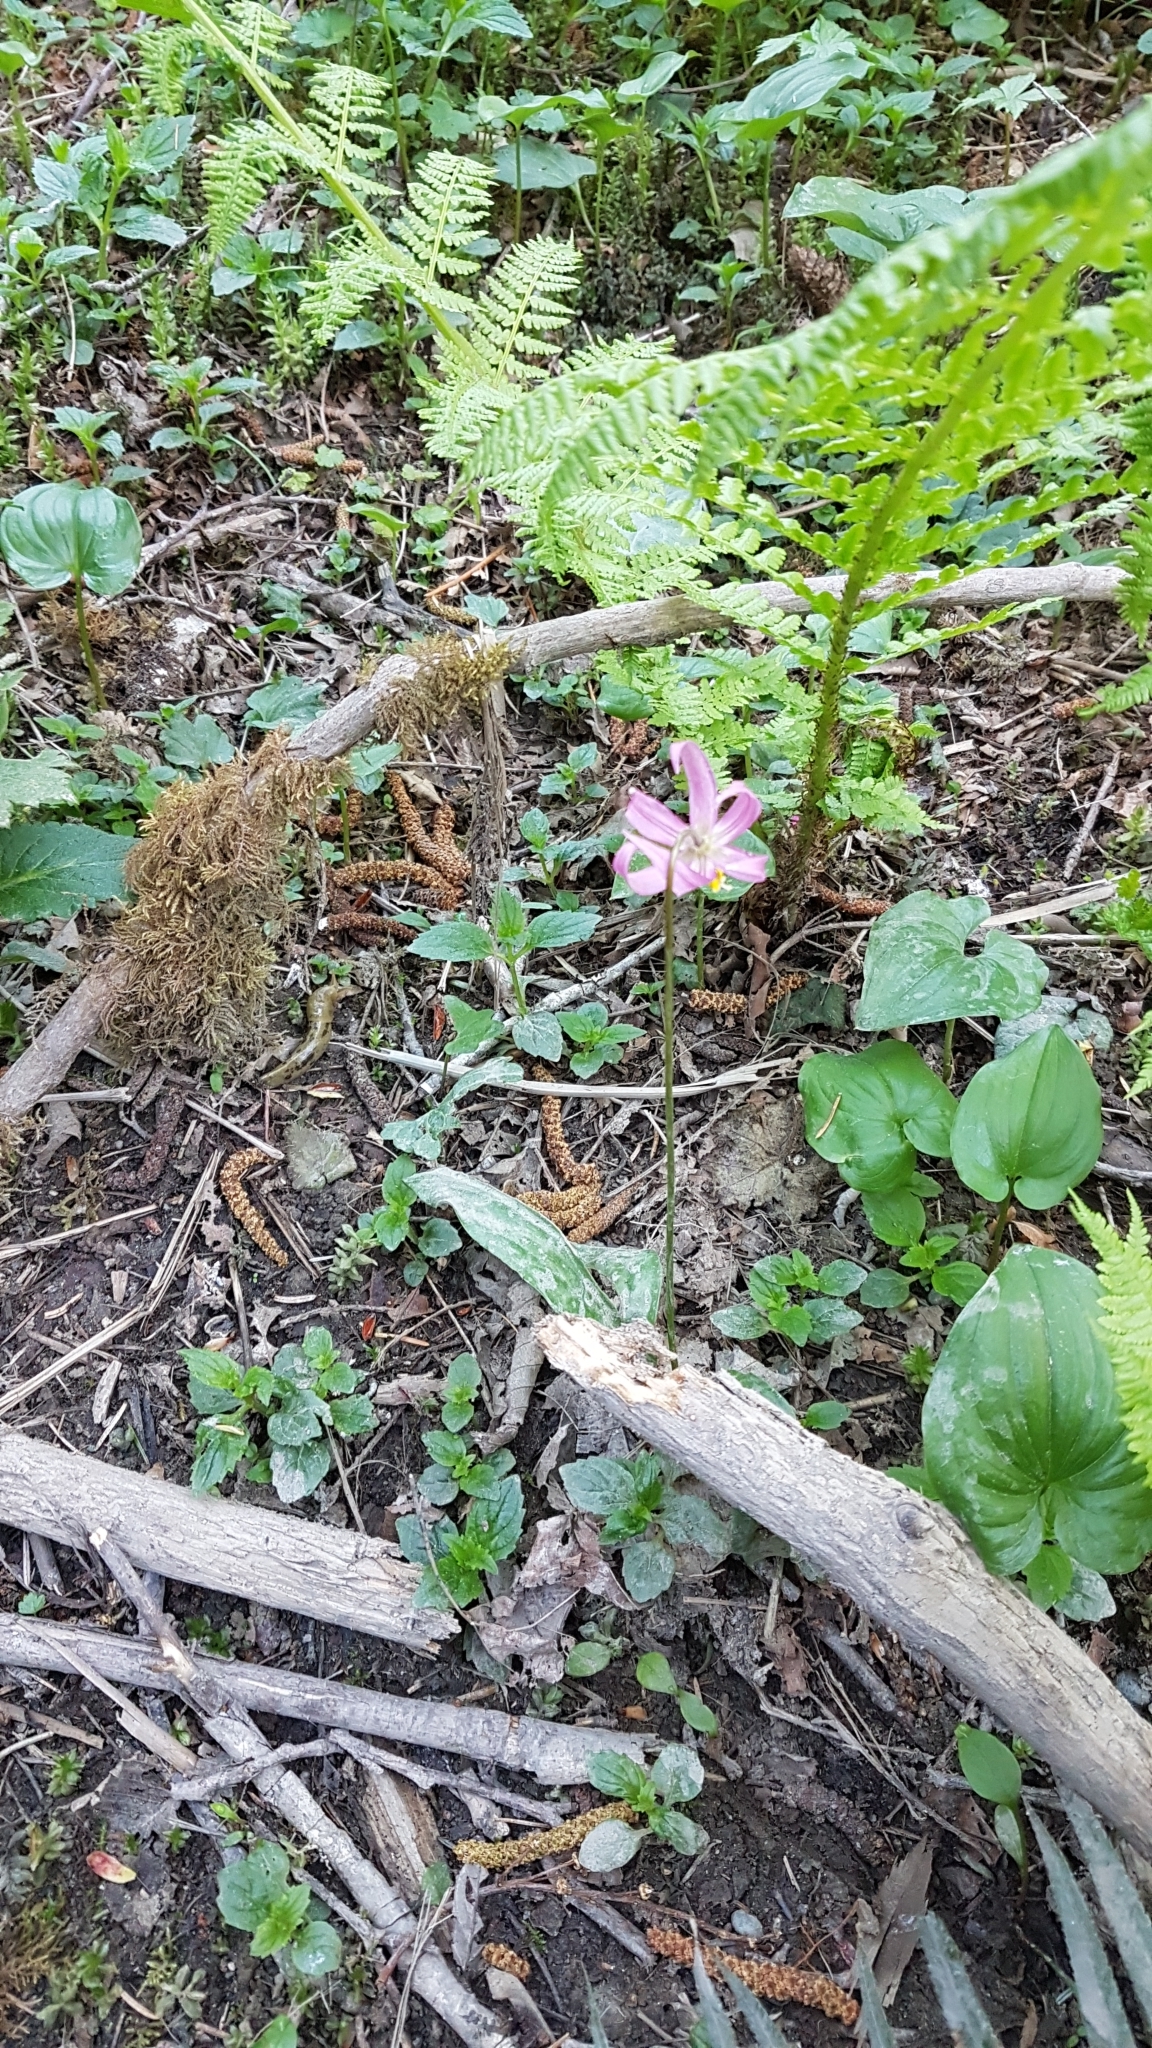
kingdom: Plantae
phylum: Tracheophyta
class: Liliopsida
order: Liliales
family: Liliaceae
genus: Erythronium
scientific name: Erythronium revolutum
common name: Pink fawn-lily
